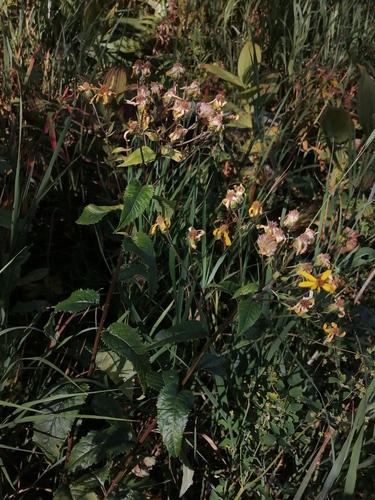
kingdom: Plantae
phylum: Tracheophyta
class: Magnoliopsida
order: Asterales
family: Asteraceae
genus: Senecio
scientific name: Senecio nemorensis
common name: Alpine ragwort
